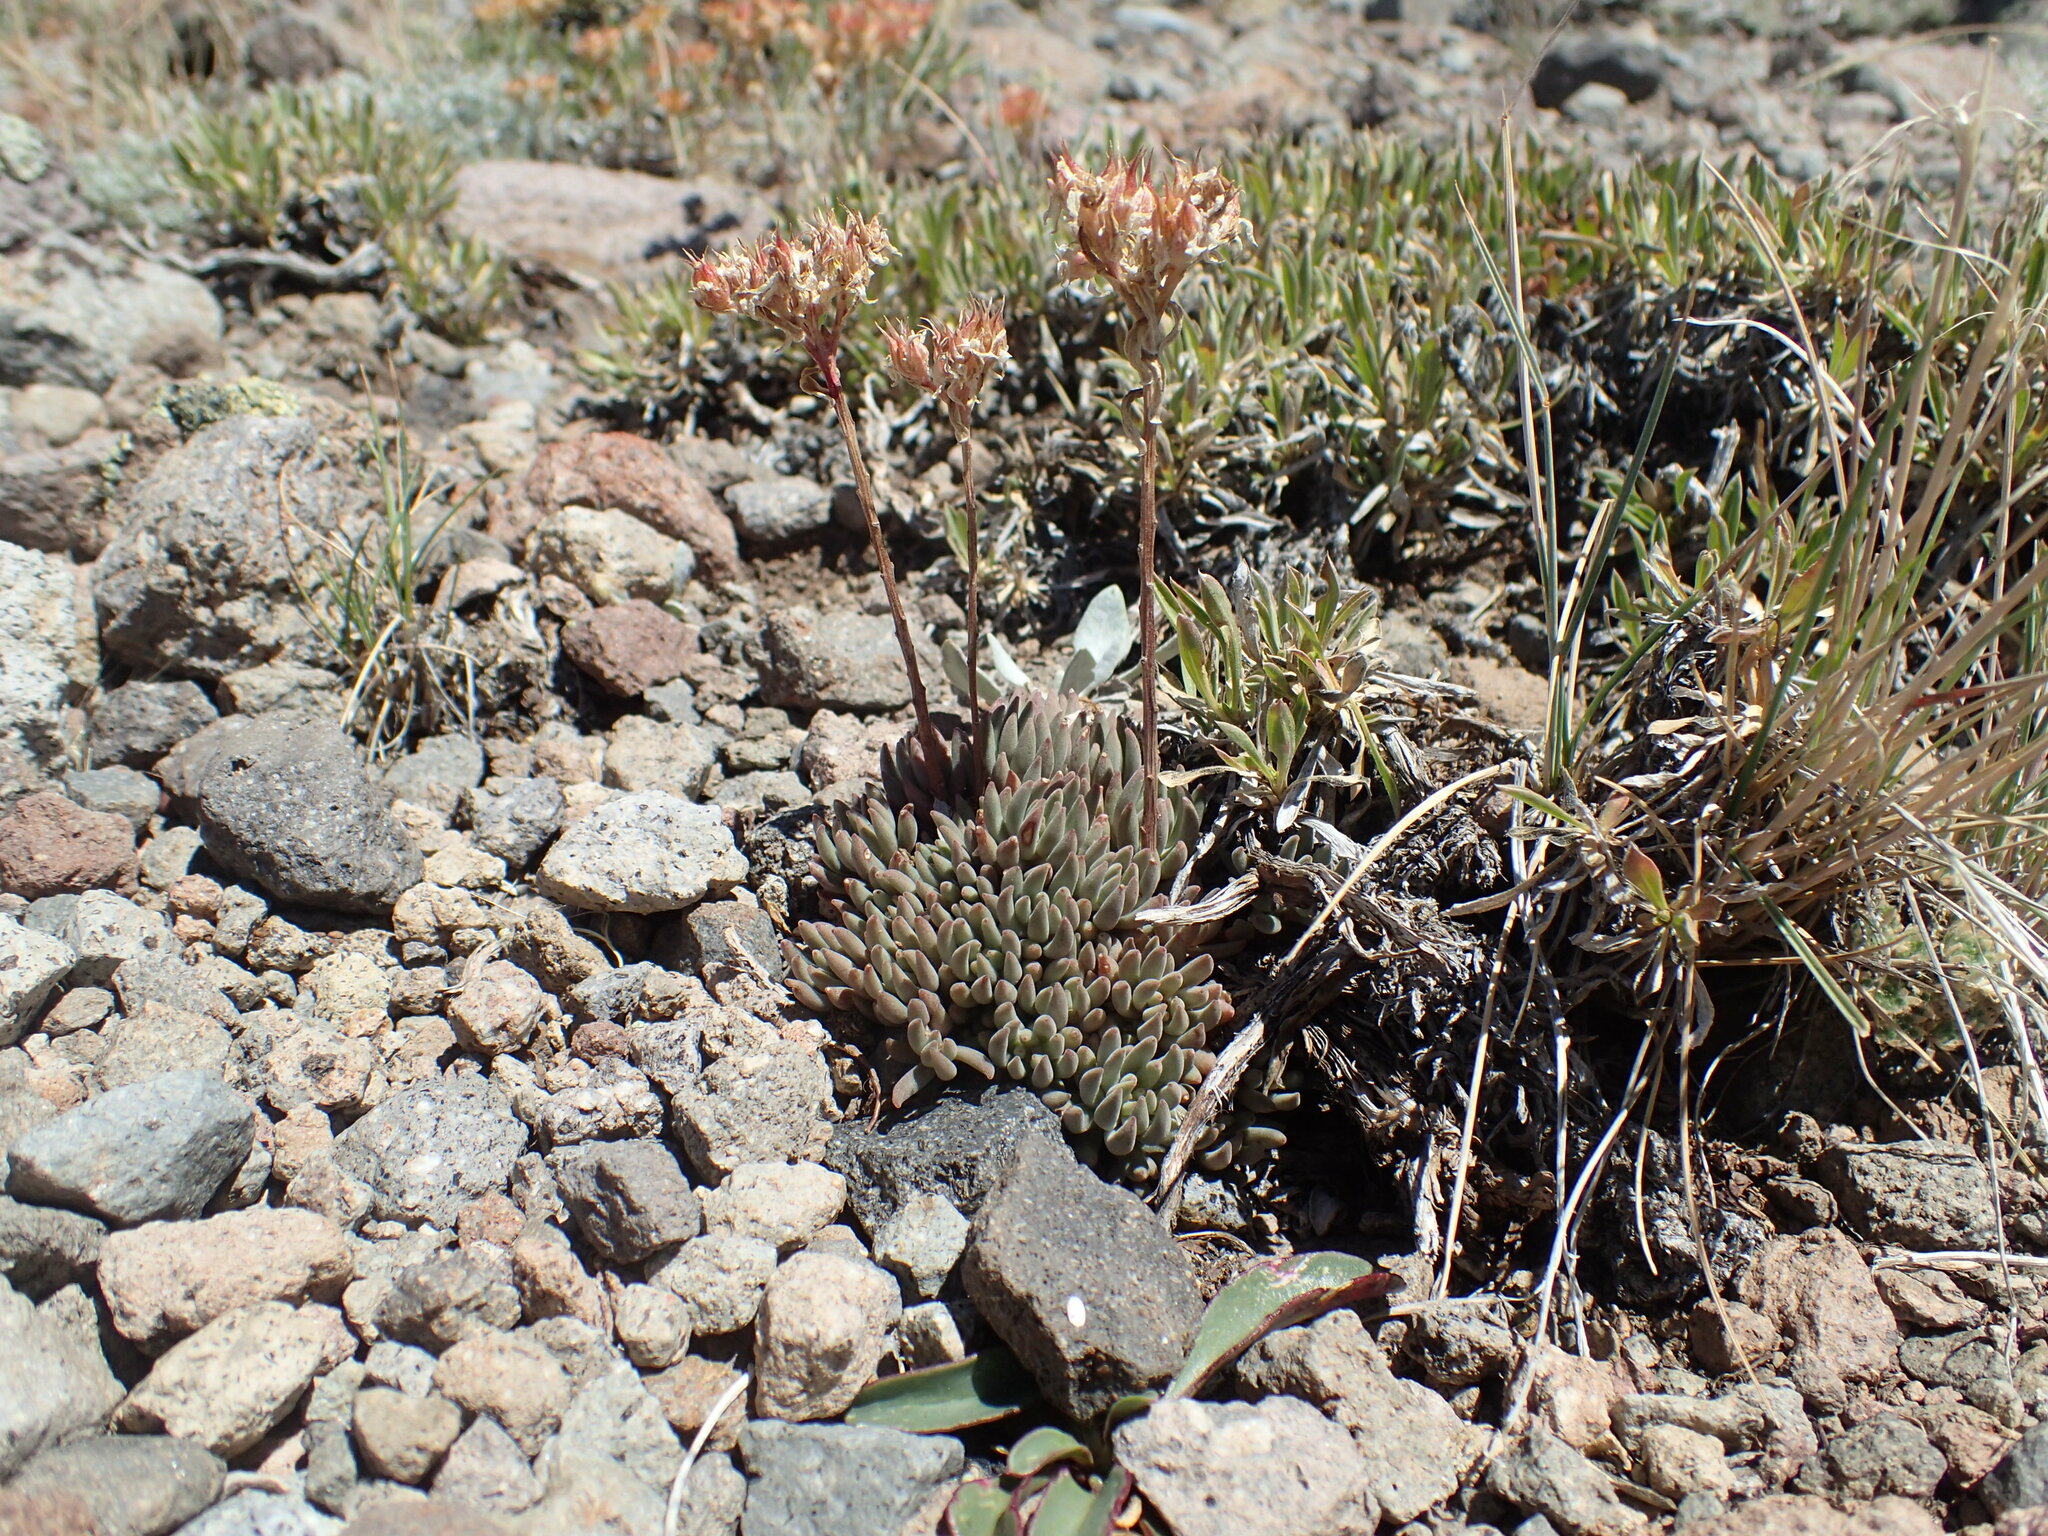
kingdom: Plantae
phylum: Tracheophyta
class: Magnoliopsida
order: Saxifragales
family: Crassulaceae
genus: Sedum
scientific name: Sedum lanceolatum
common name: Common stonecrop
